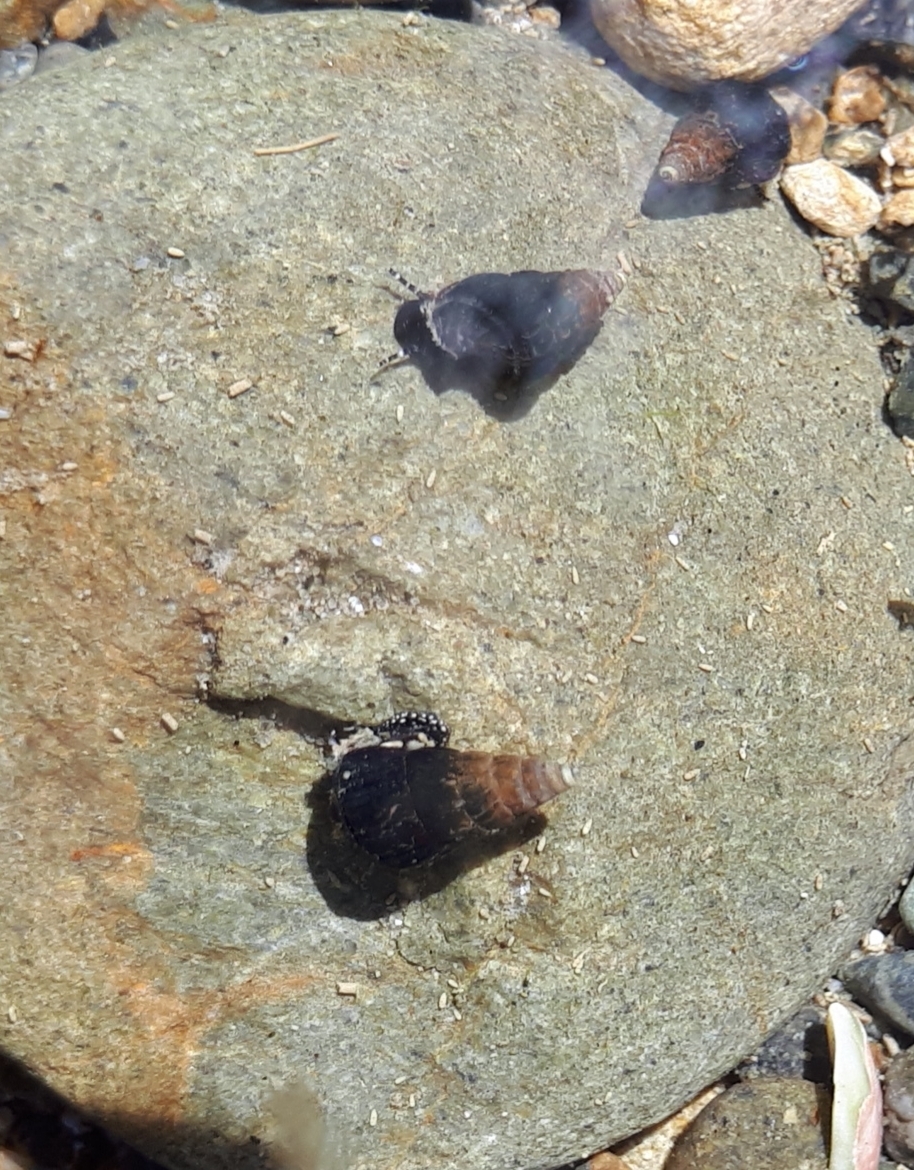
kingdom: Animalia
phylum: Mollusca
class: Gastropoda
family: Batillariidae
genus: Zeacumantus
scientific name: Zeacumantus subcarinatus
